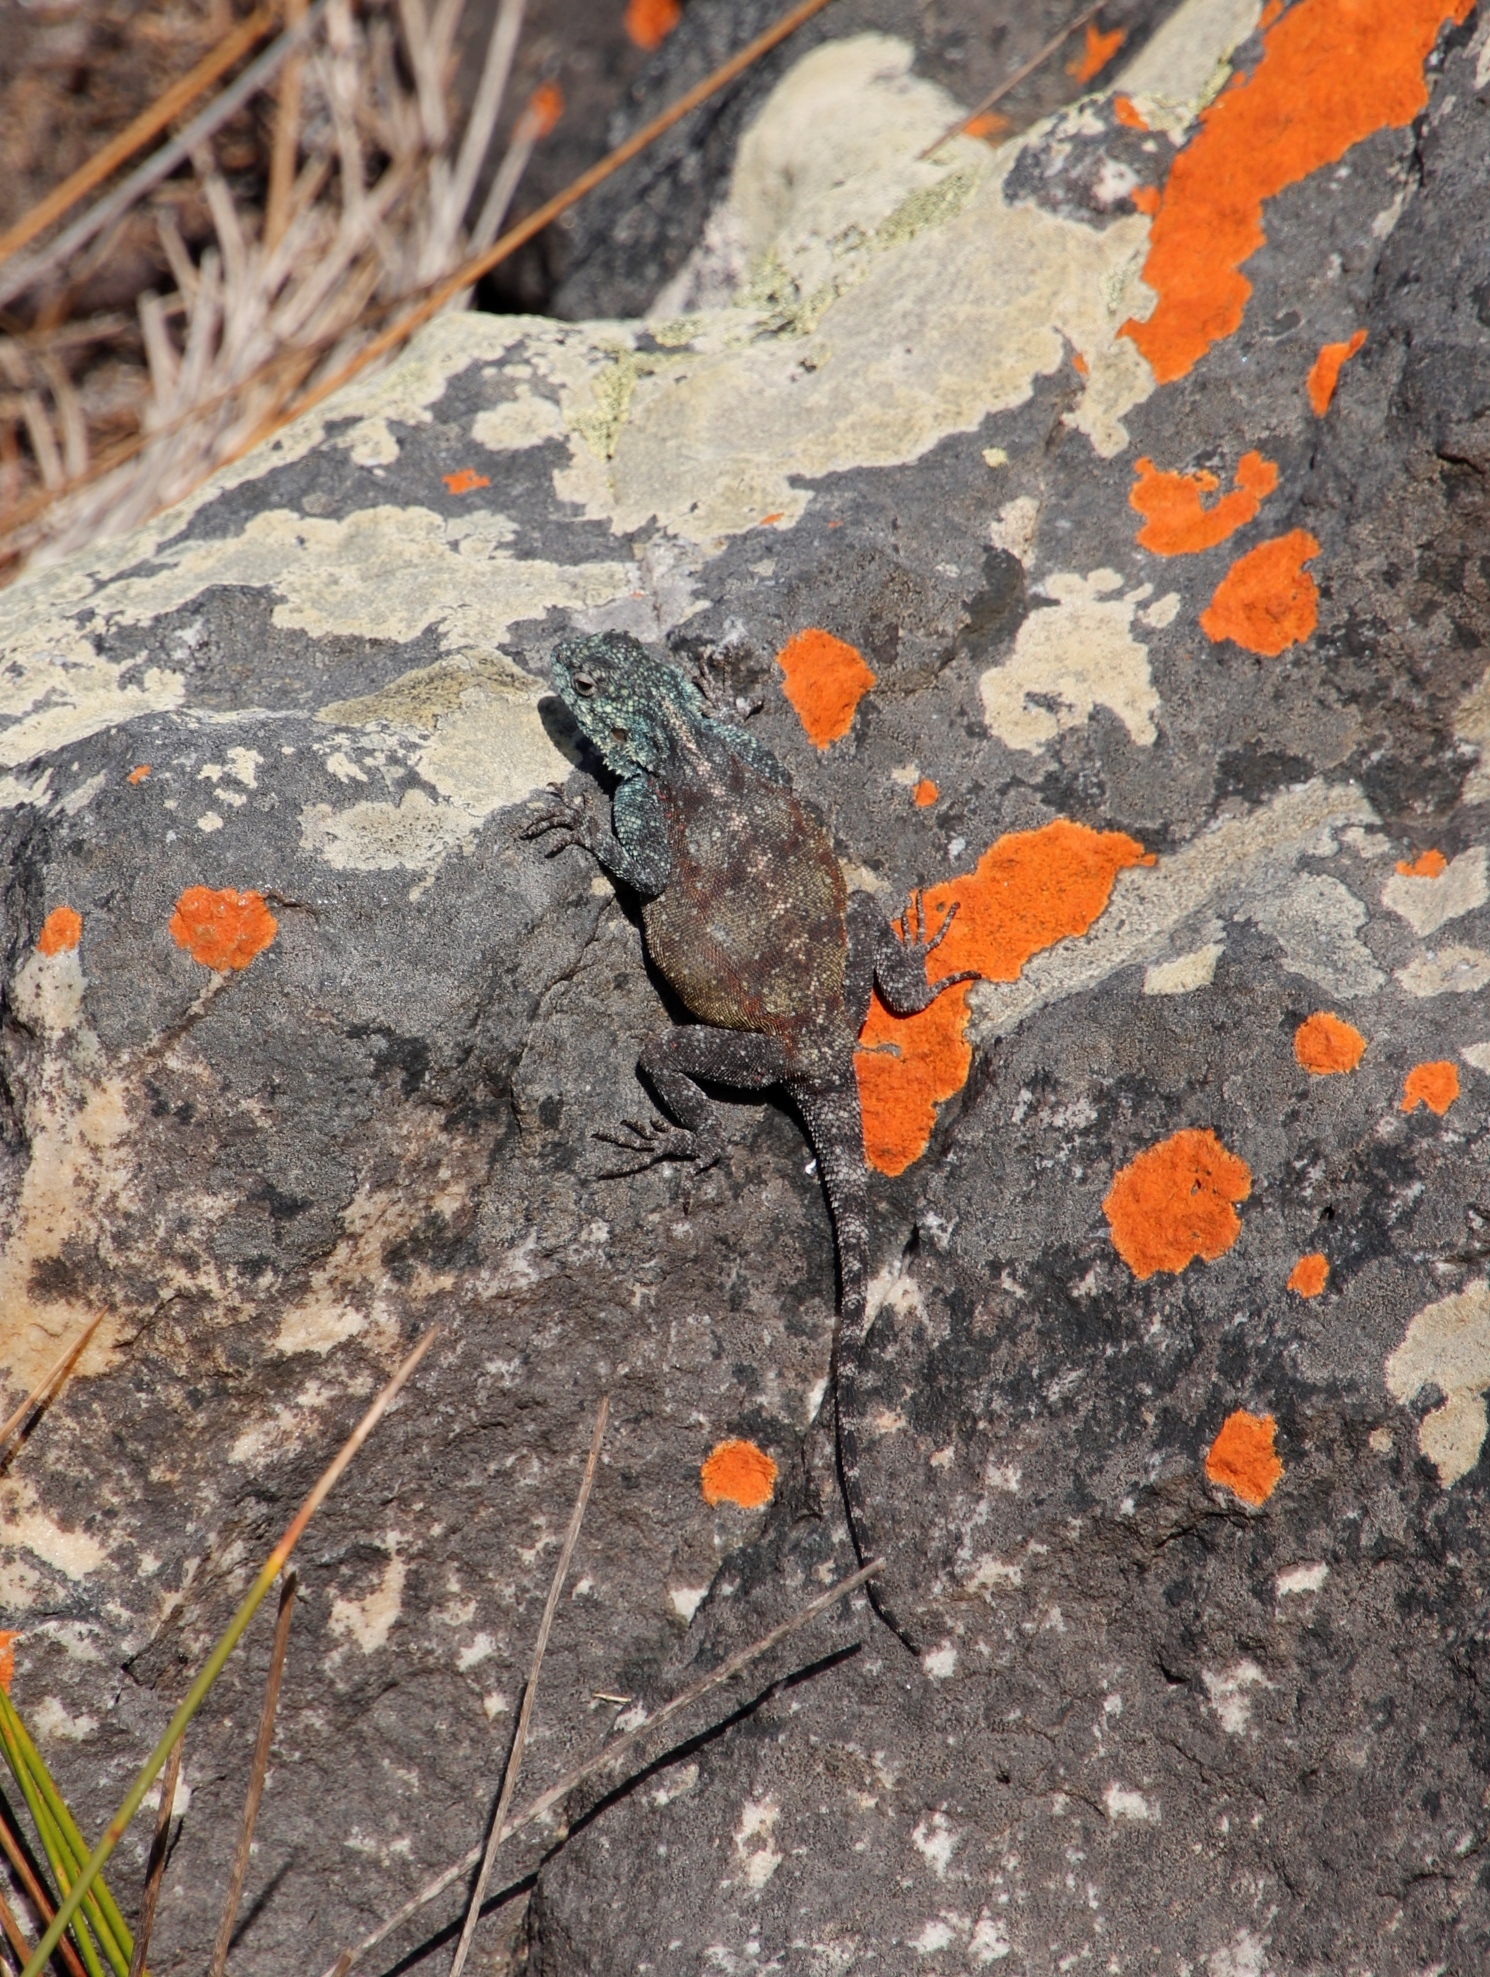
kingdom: Animalia
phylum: Chordata
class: Squamata
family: Agamidae
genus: Agama
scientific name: Agama atra
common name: Southern african rock agama
